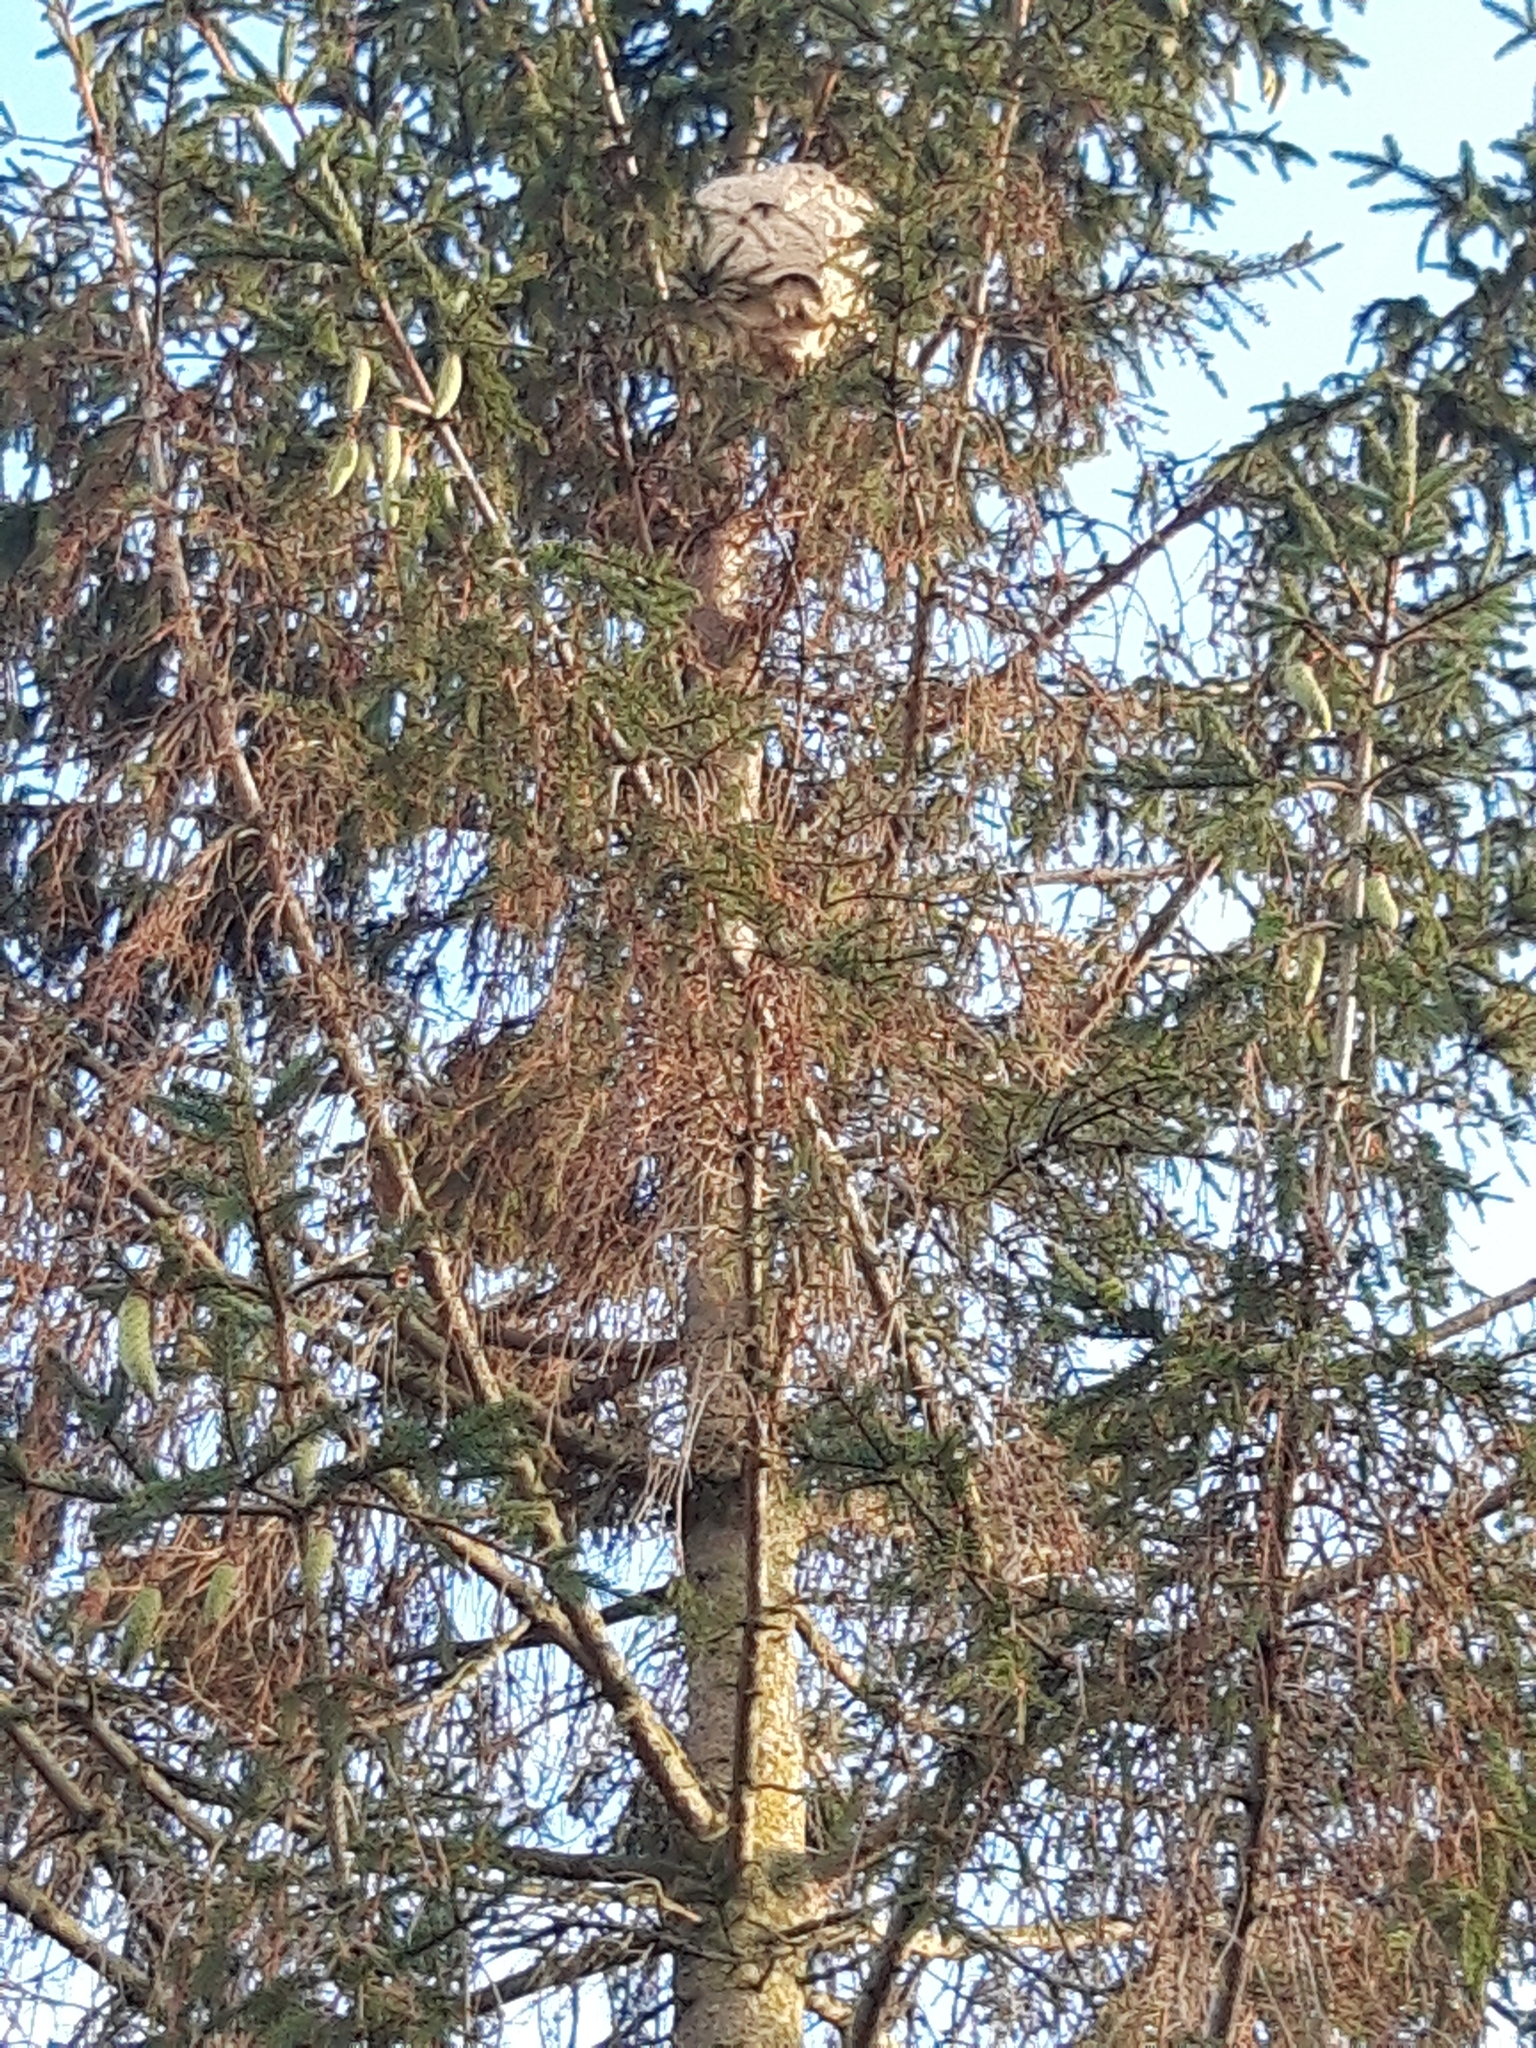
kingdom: Animalia
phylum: Arthropoda
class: Insecta
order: Hymenoptera
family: Vespidae
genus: Vespa
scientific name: Vespa velutina
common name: Asian hornet
